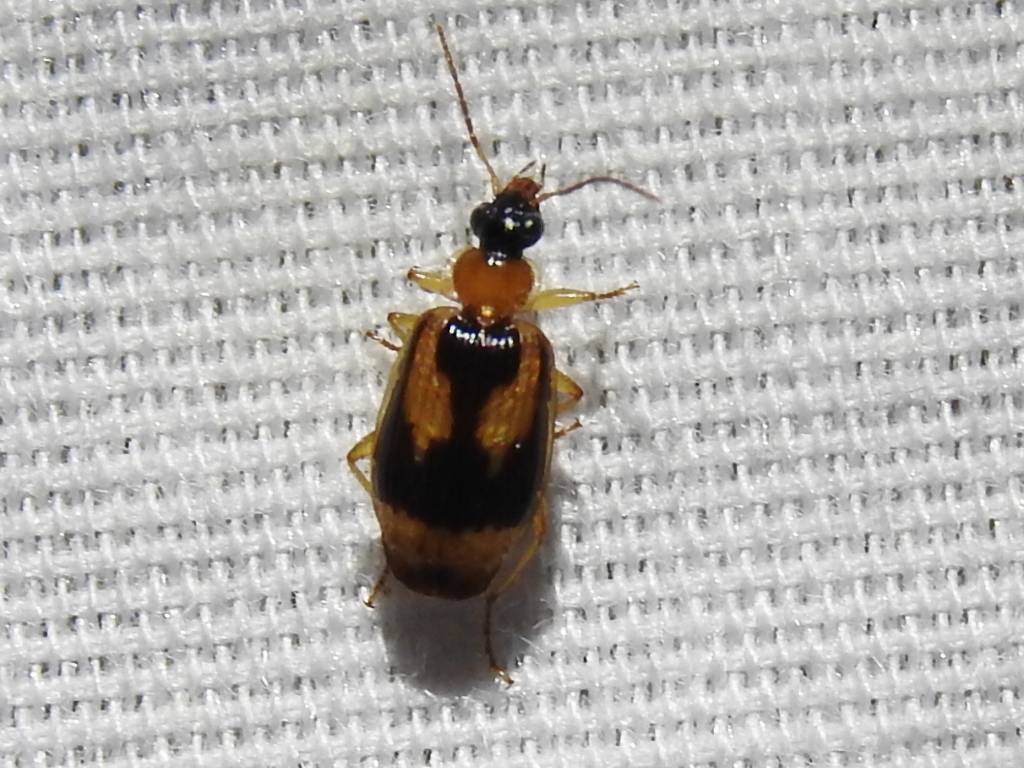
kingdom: Animalia
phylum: Arthropoda
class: Insecta
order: Coleoptera
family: Carabidae
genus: Lebia
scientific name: Lebia solea
